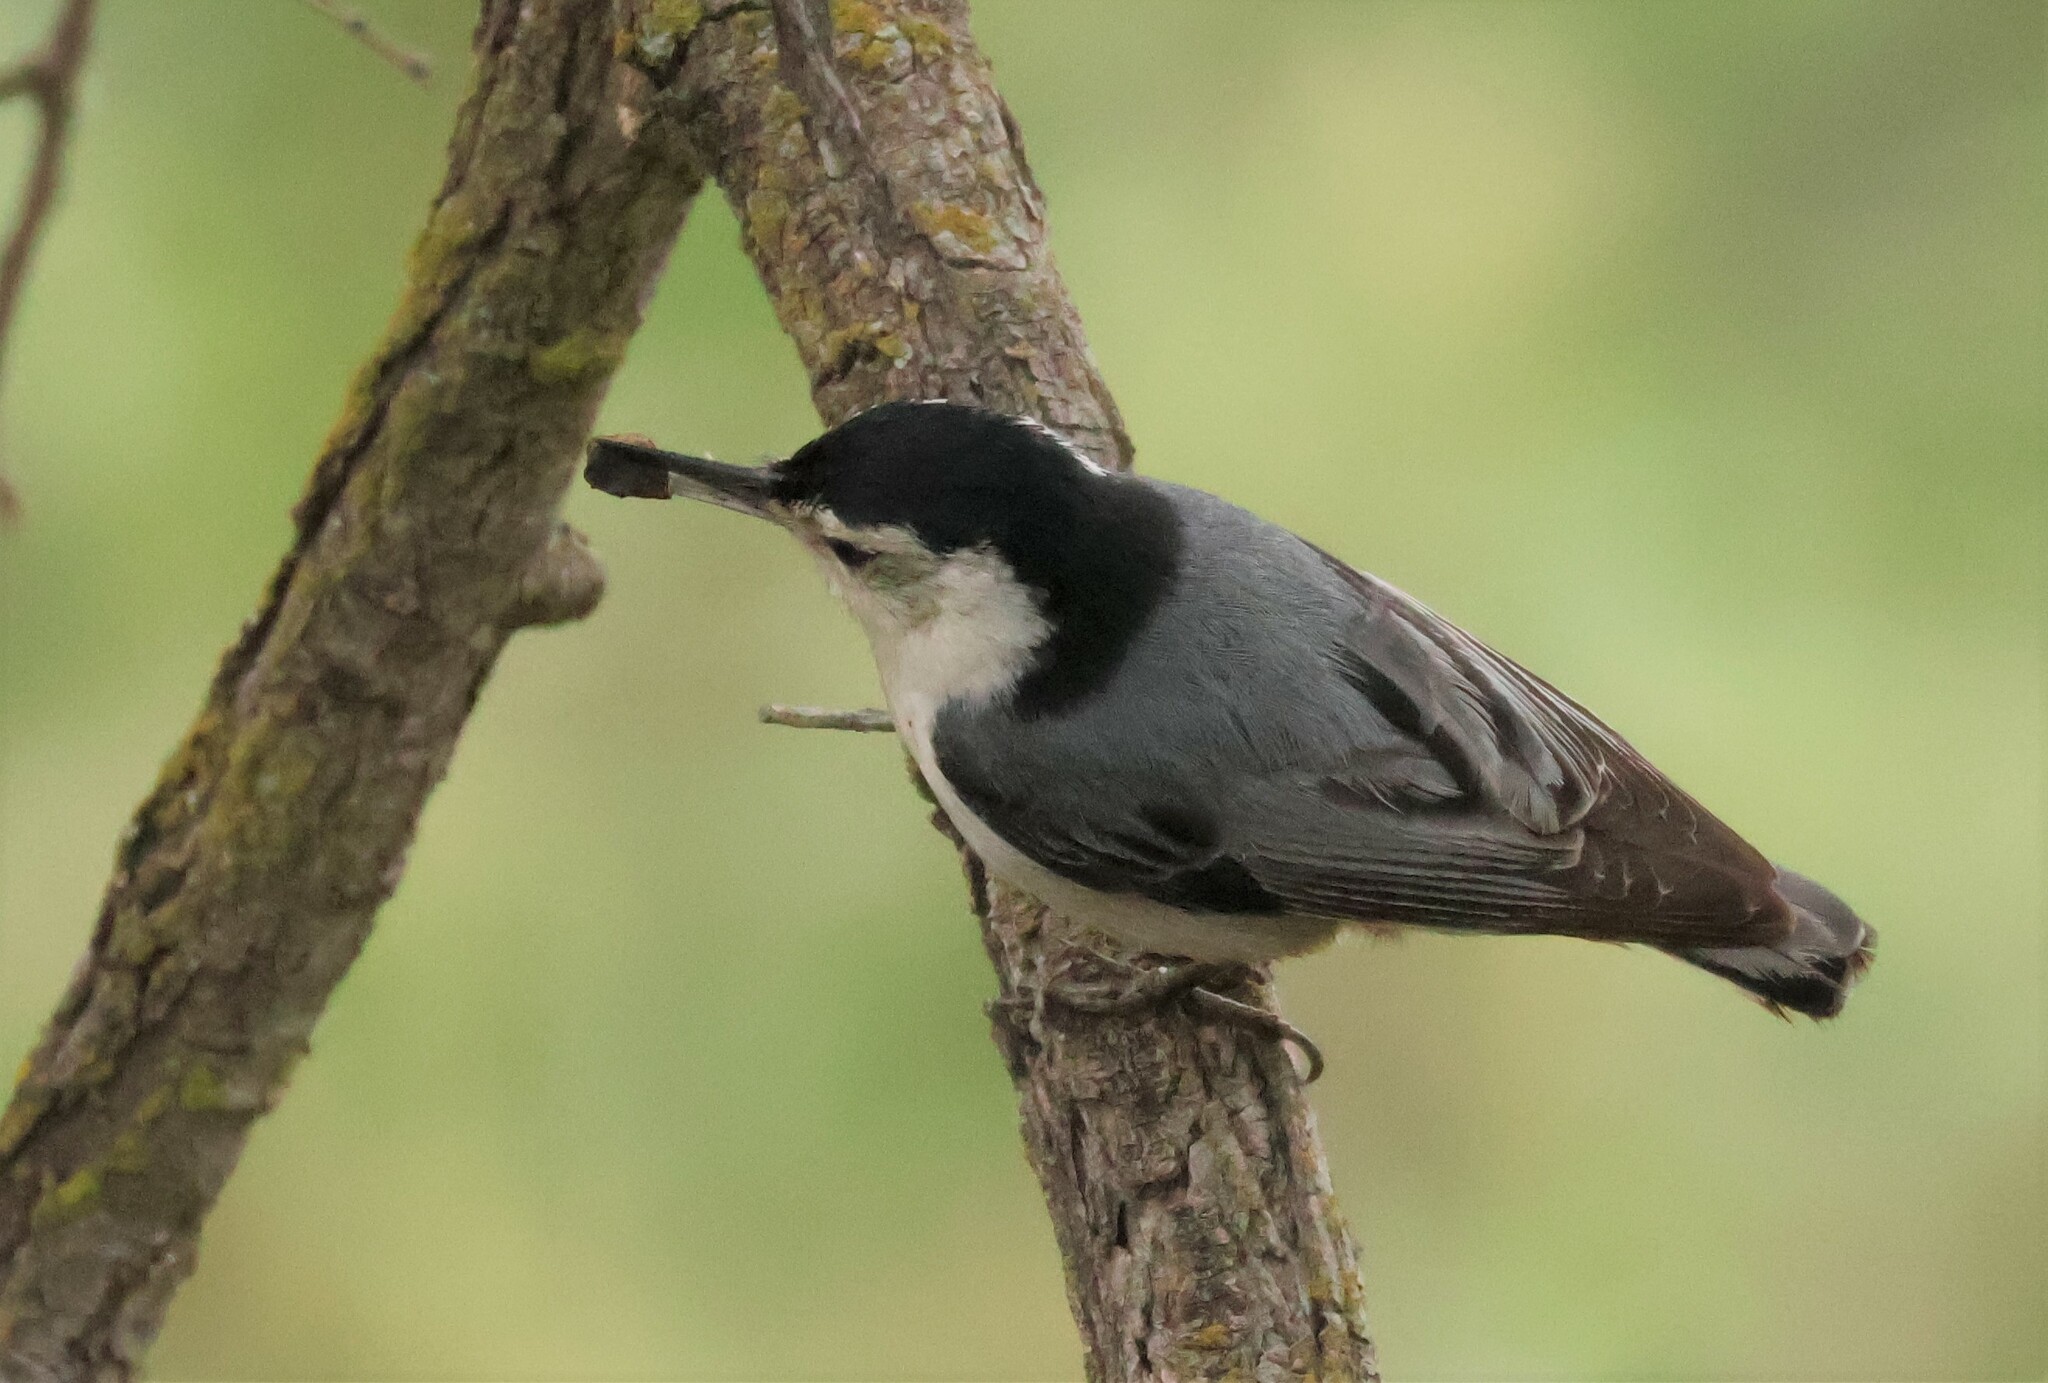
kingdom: Animalia
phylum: Chordata
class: Aves
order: Passeriformes
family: Sittidae
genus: Sitta
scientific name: Sitta carolinensis
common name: White-breasted nuthatch
